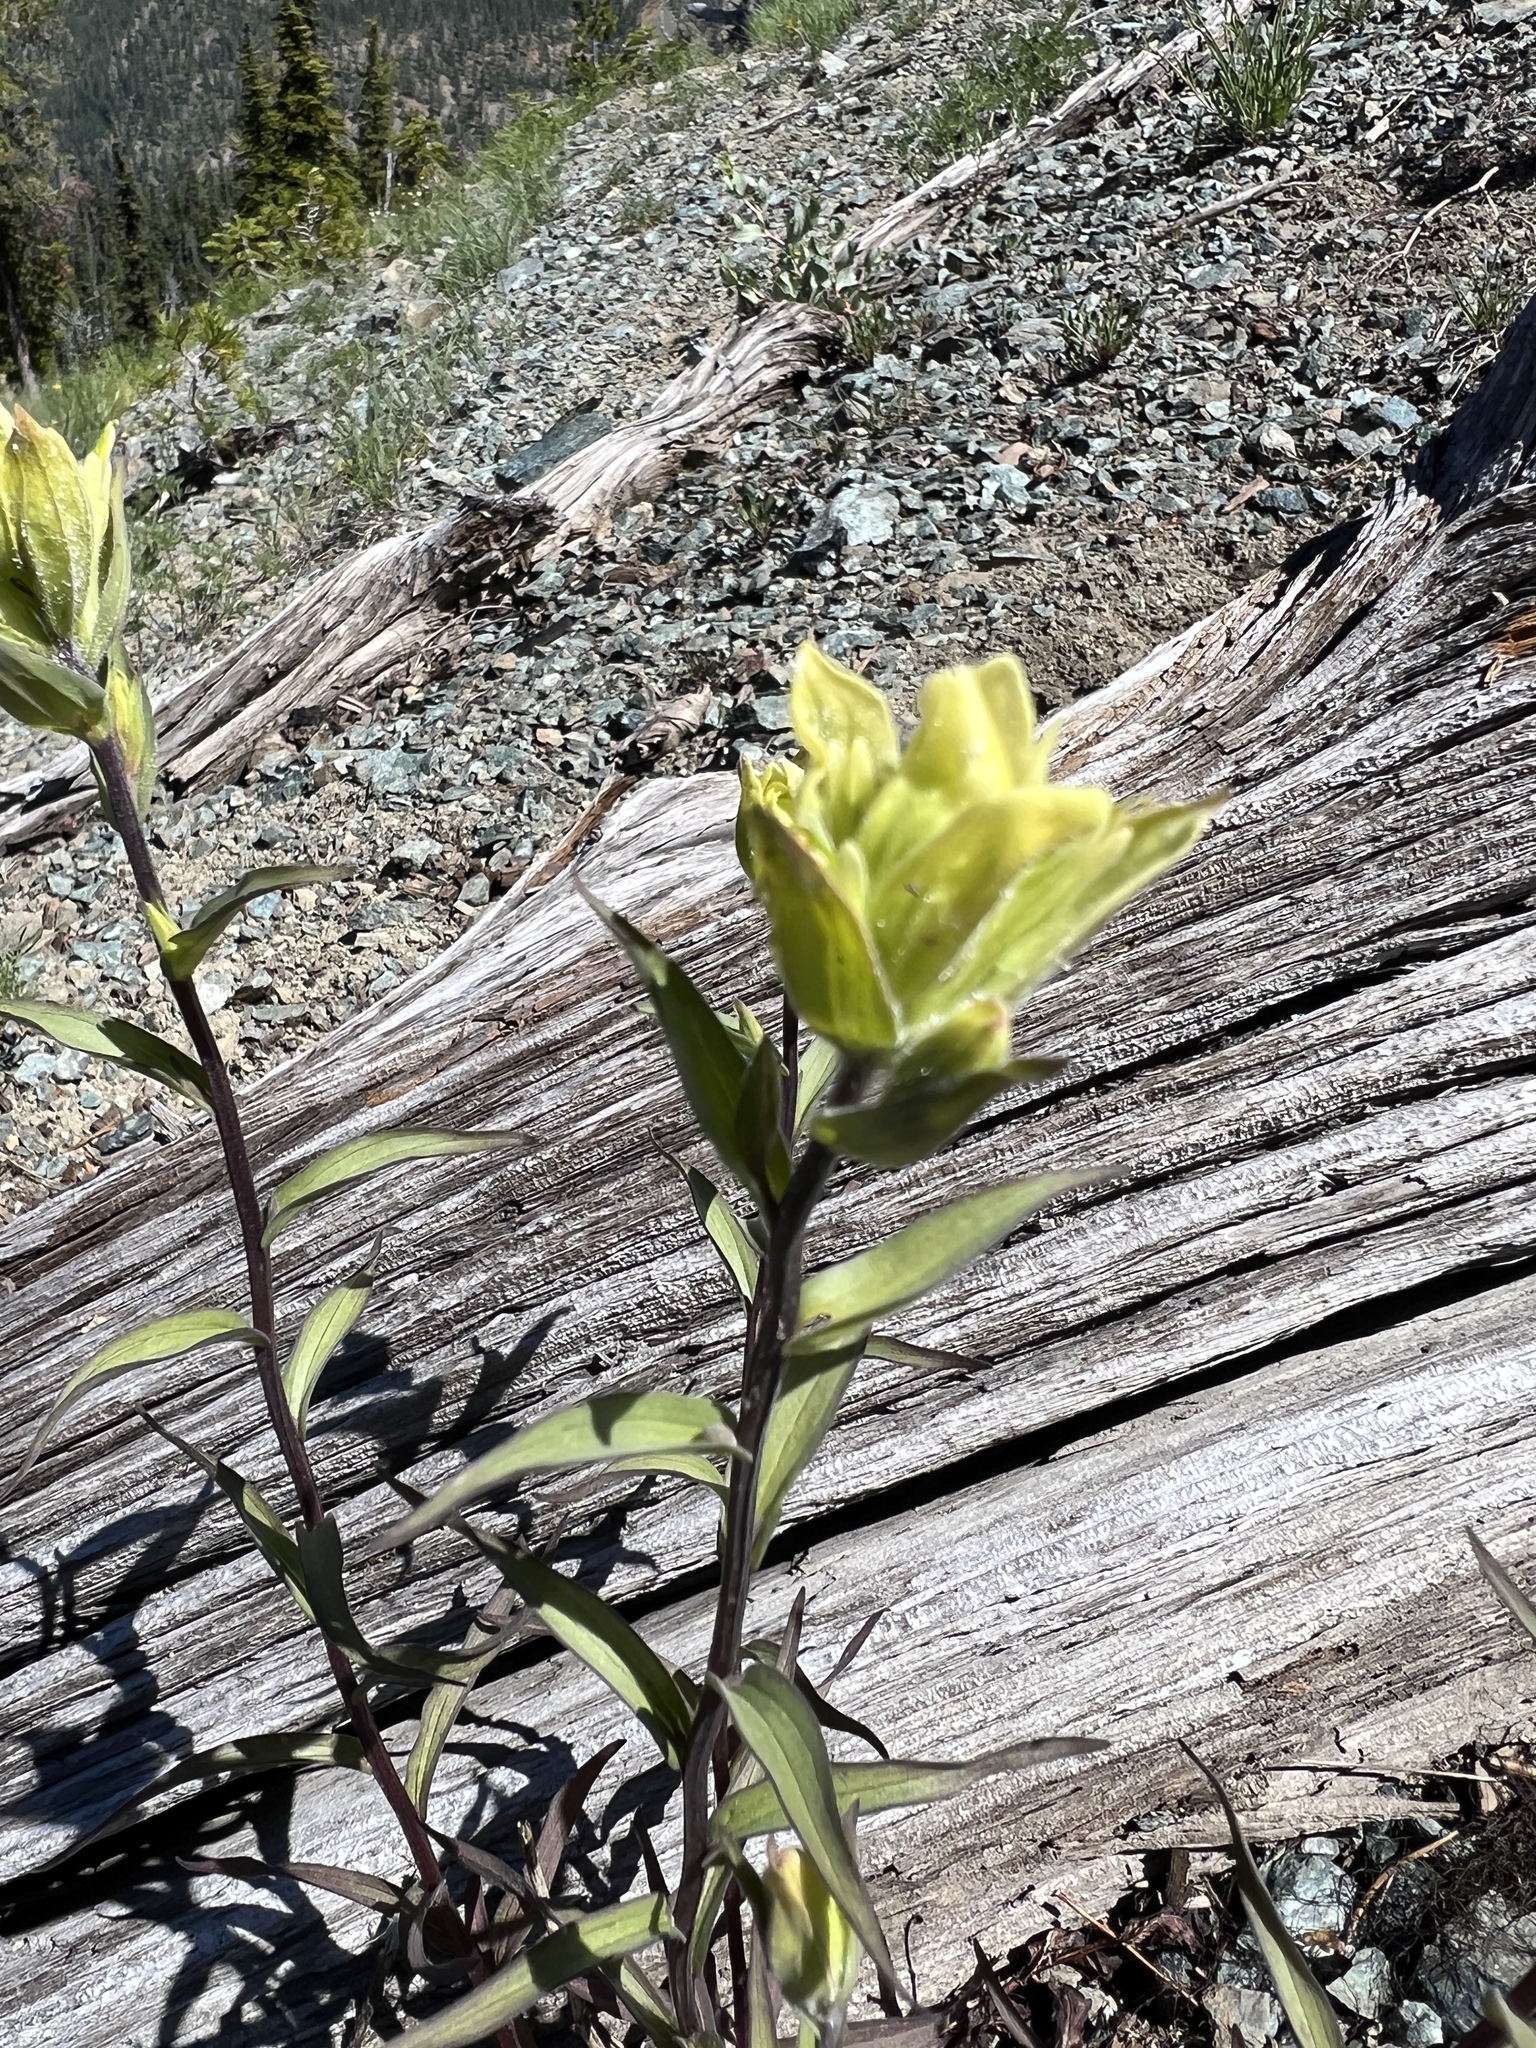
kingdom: Plantae
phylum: Tracheophyta
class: Magnoliopsida
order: Lamiales
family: Orobanchaceae
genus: Castilleja
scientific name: Castilleja elmeri
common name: Elmer's paintbrush
